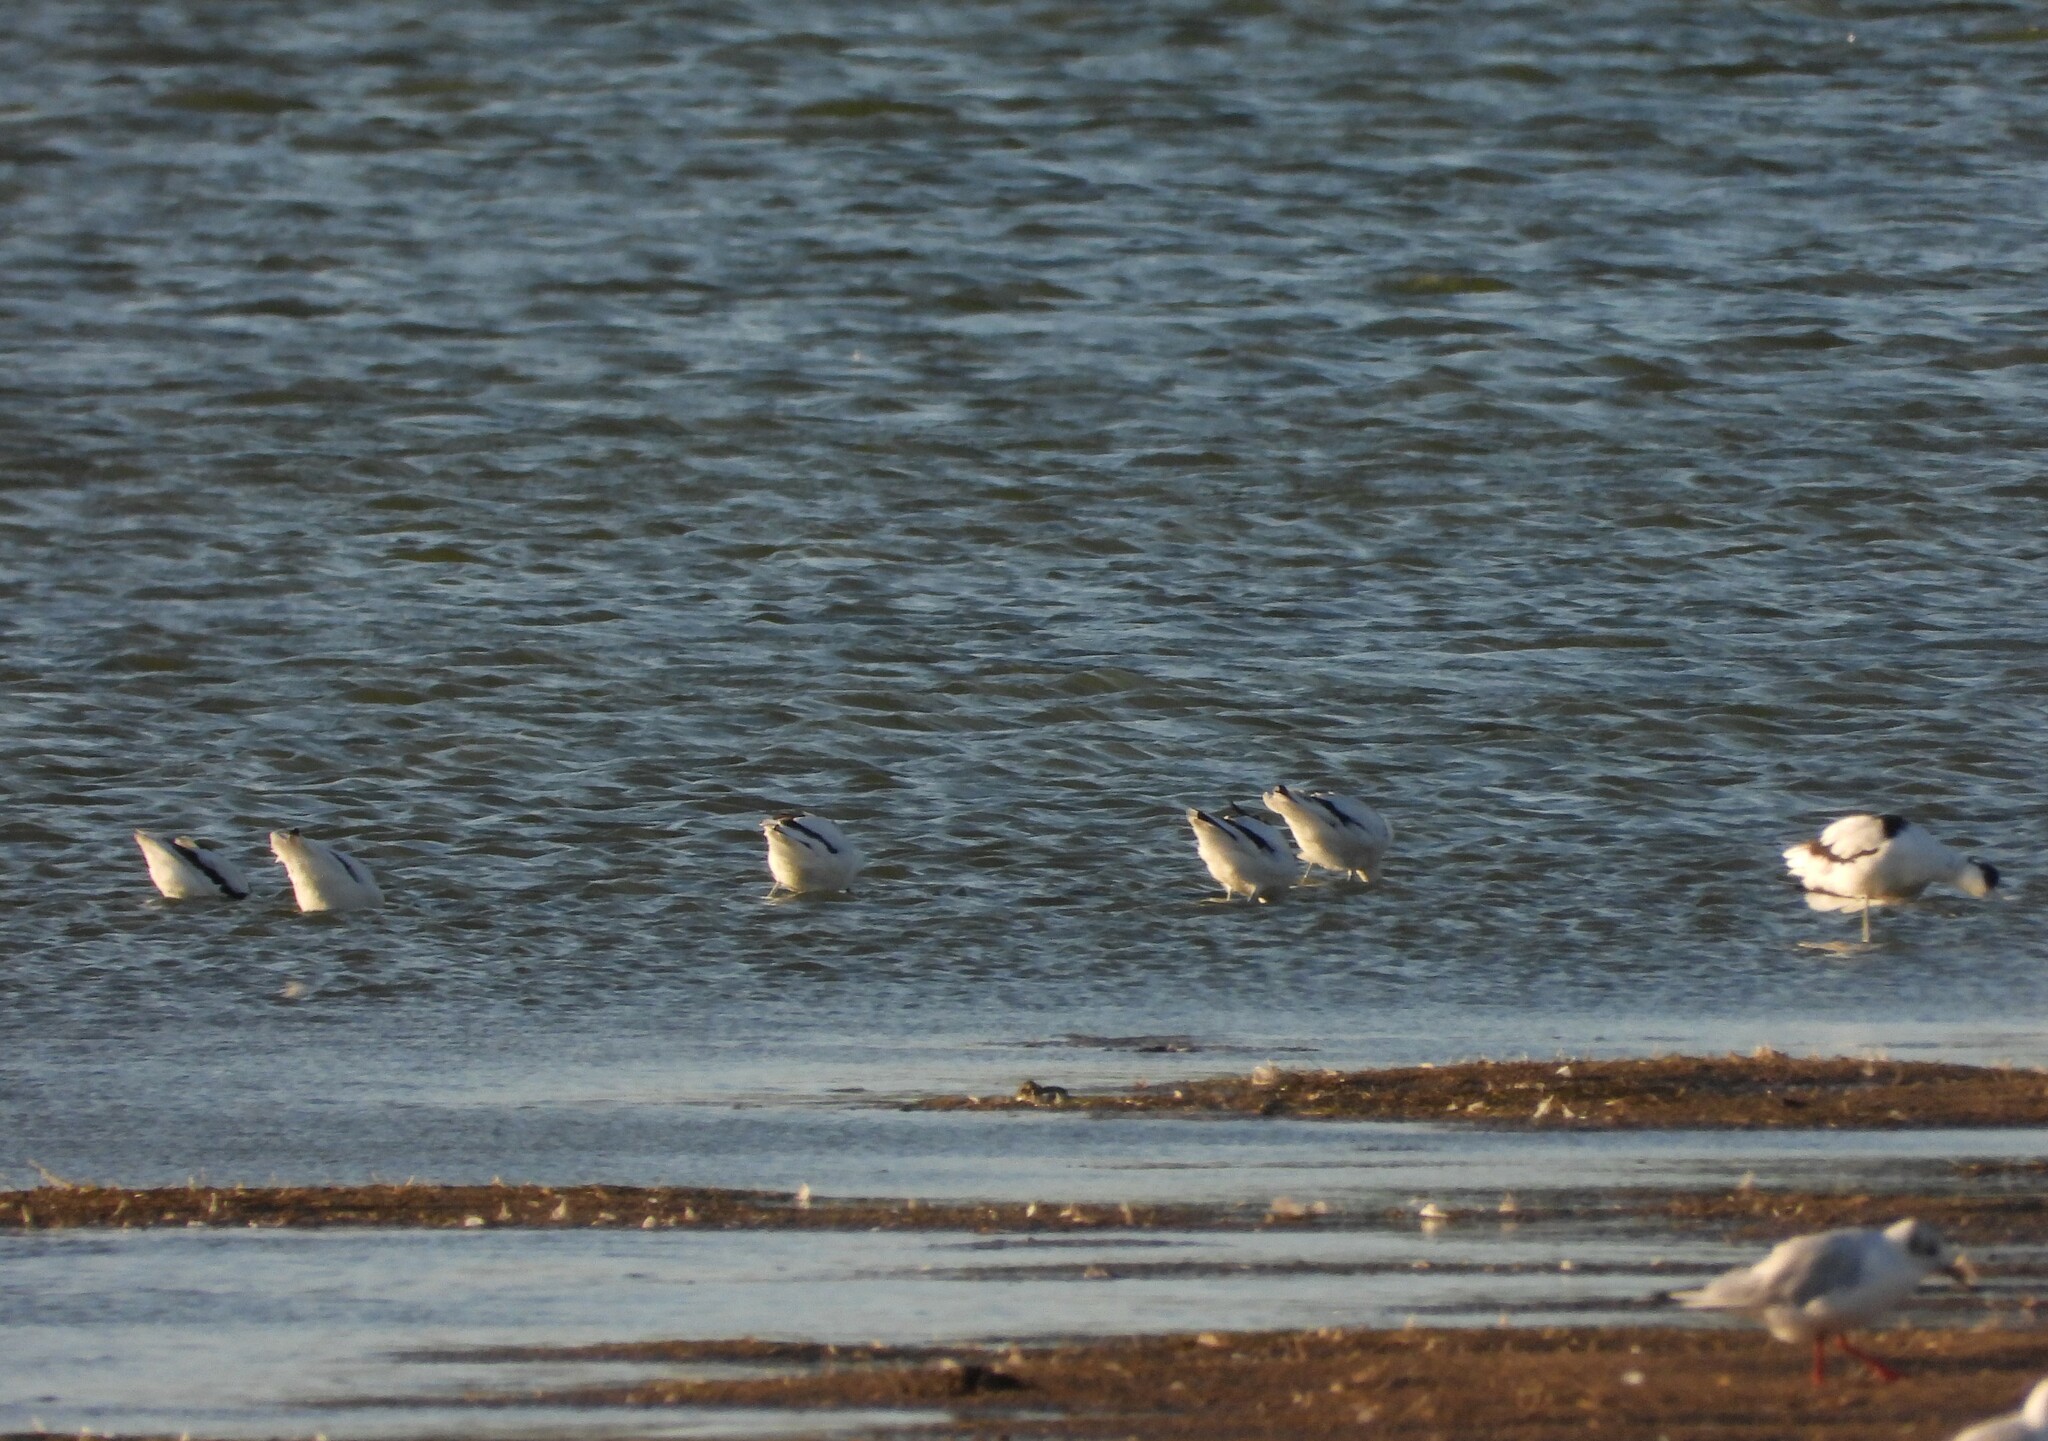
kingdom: Animalia
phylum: Chordata
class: Aves
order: Charadriiformes
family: Recurvirostridae
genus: Recurvirostra
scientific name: Recurvirostra avosetta
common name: Pied avocet
